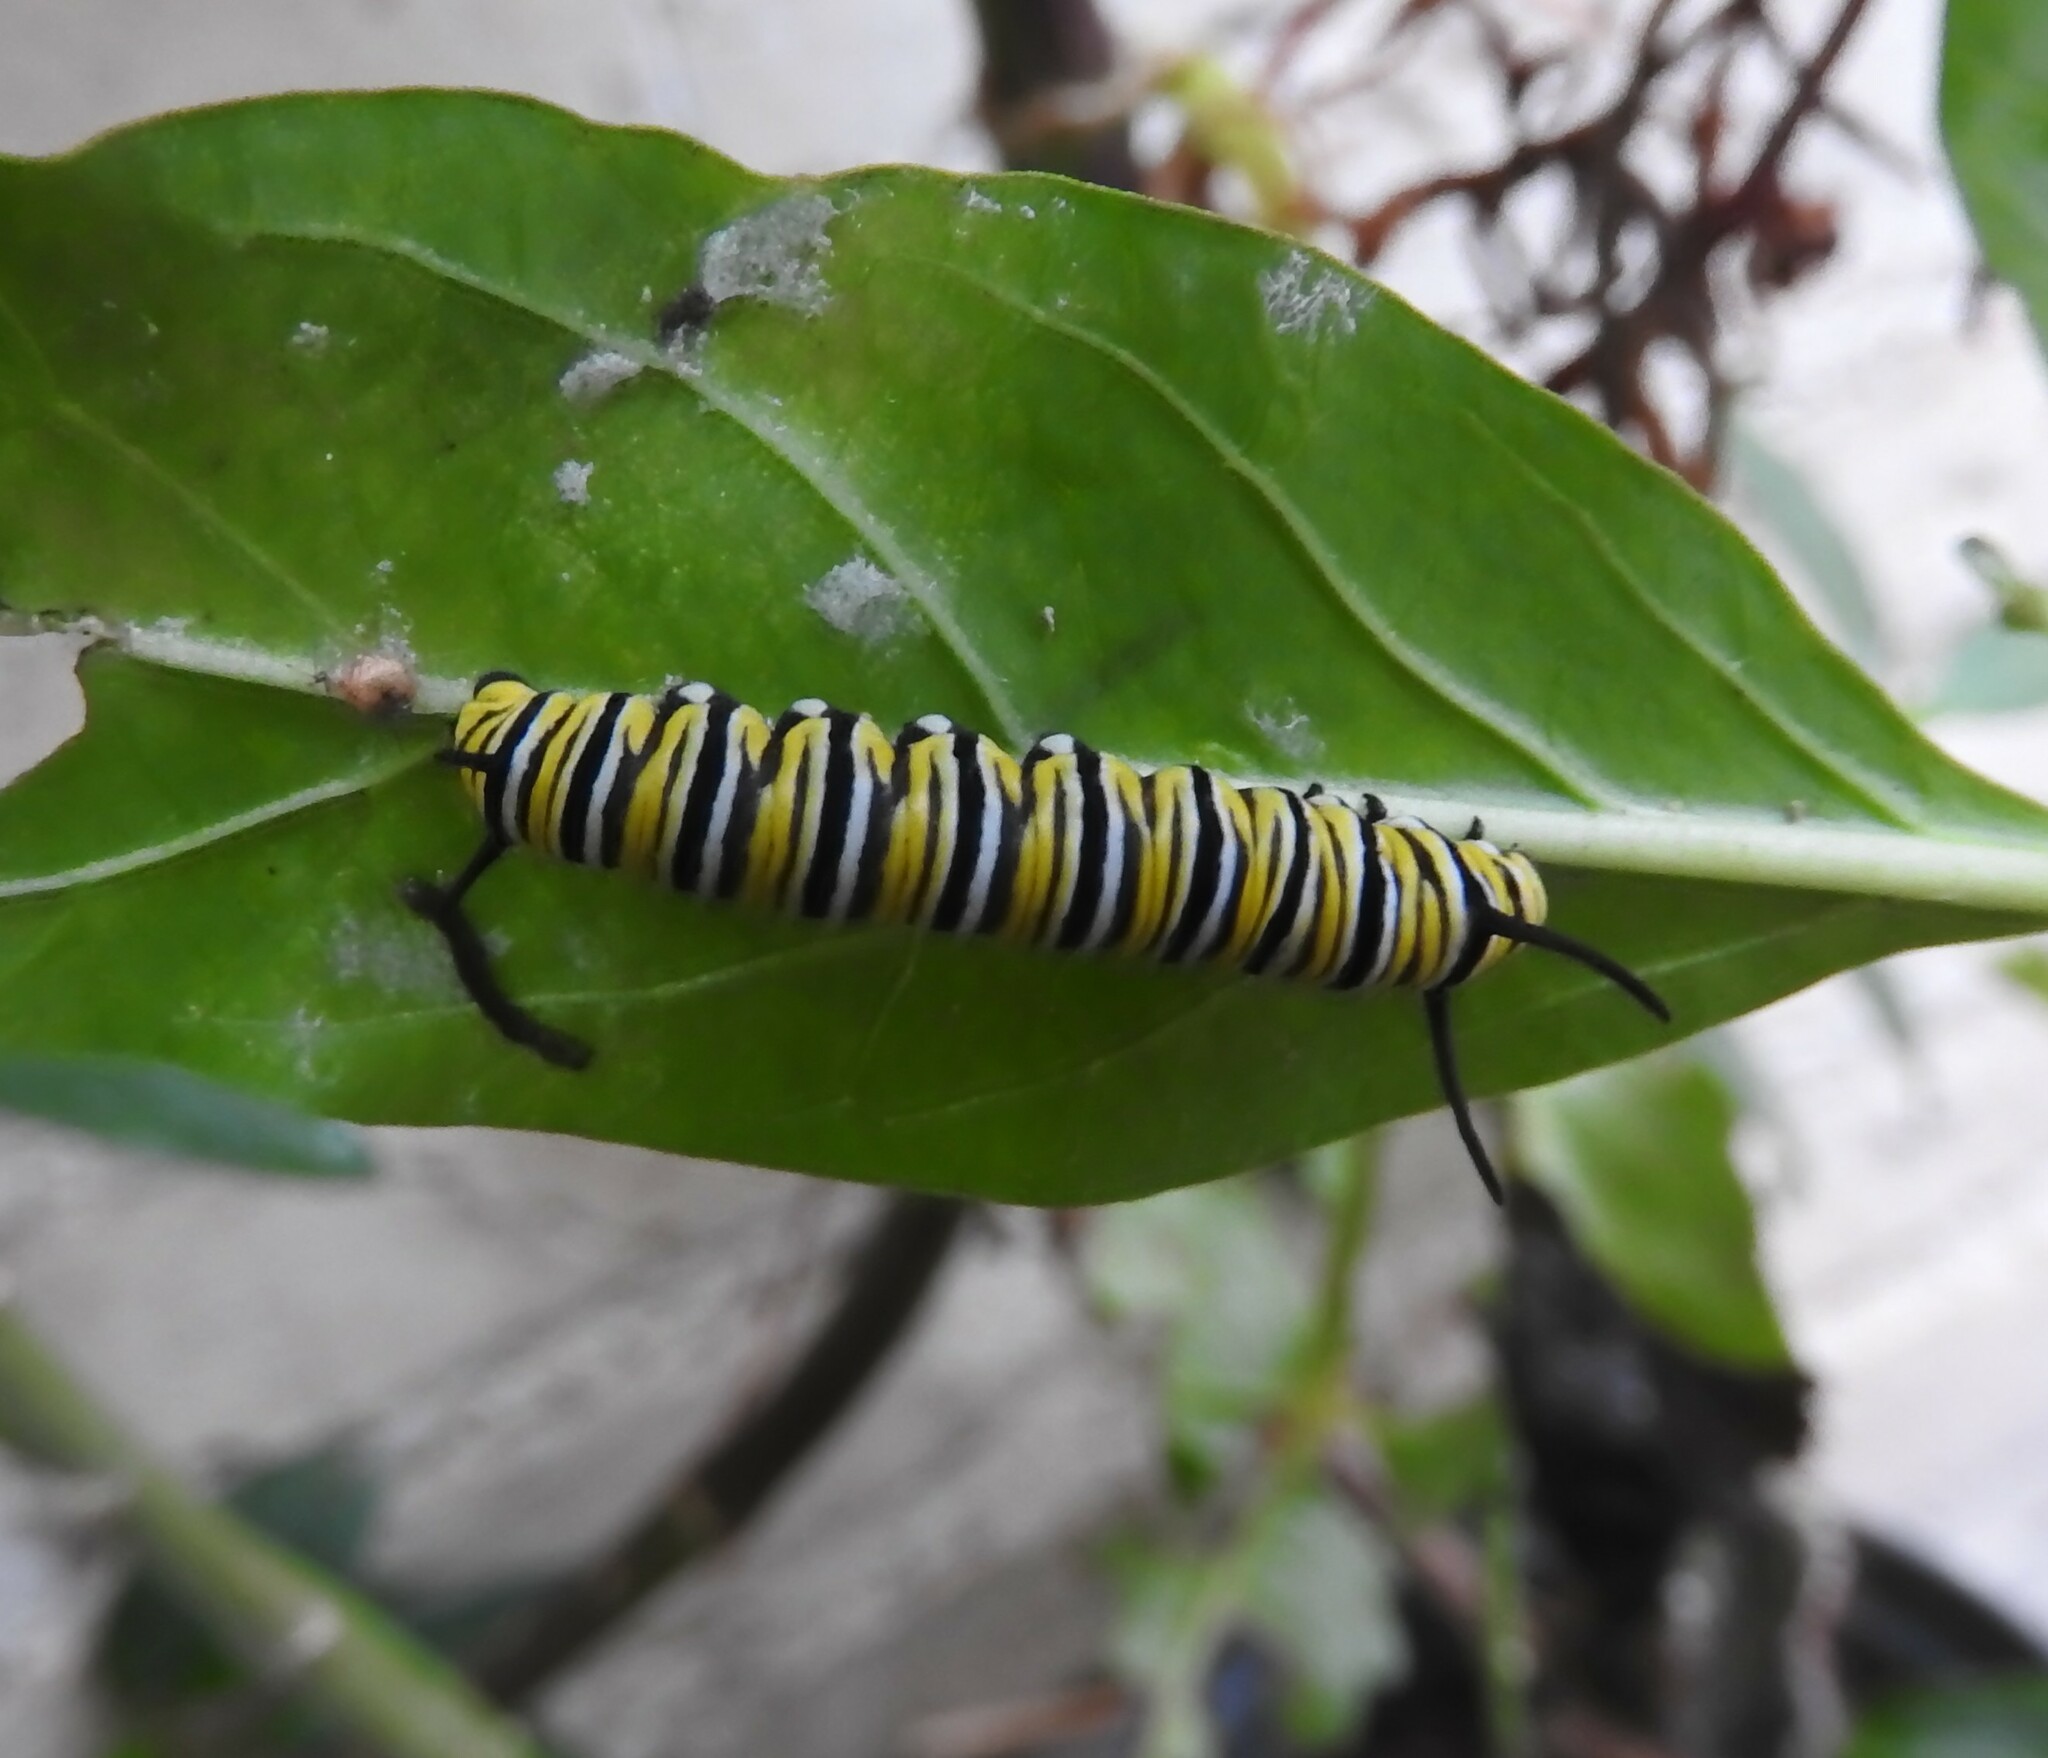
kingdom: Animalia
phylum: Arthropoda
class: Insecta
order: Lepidoptera
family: Nymphalidae
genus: Danaus
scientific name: Danaus plexippus
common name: Monarch
